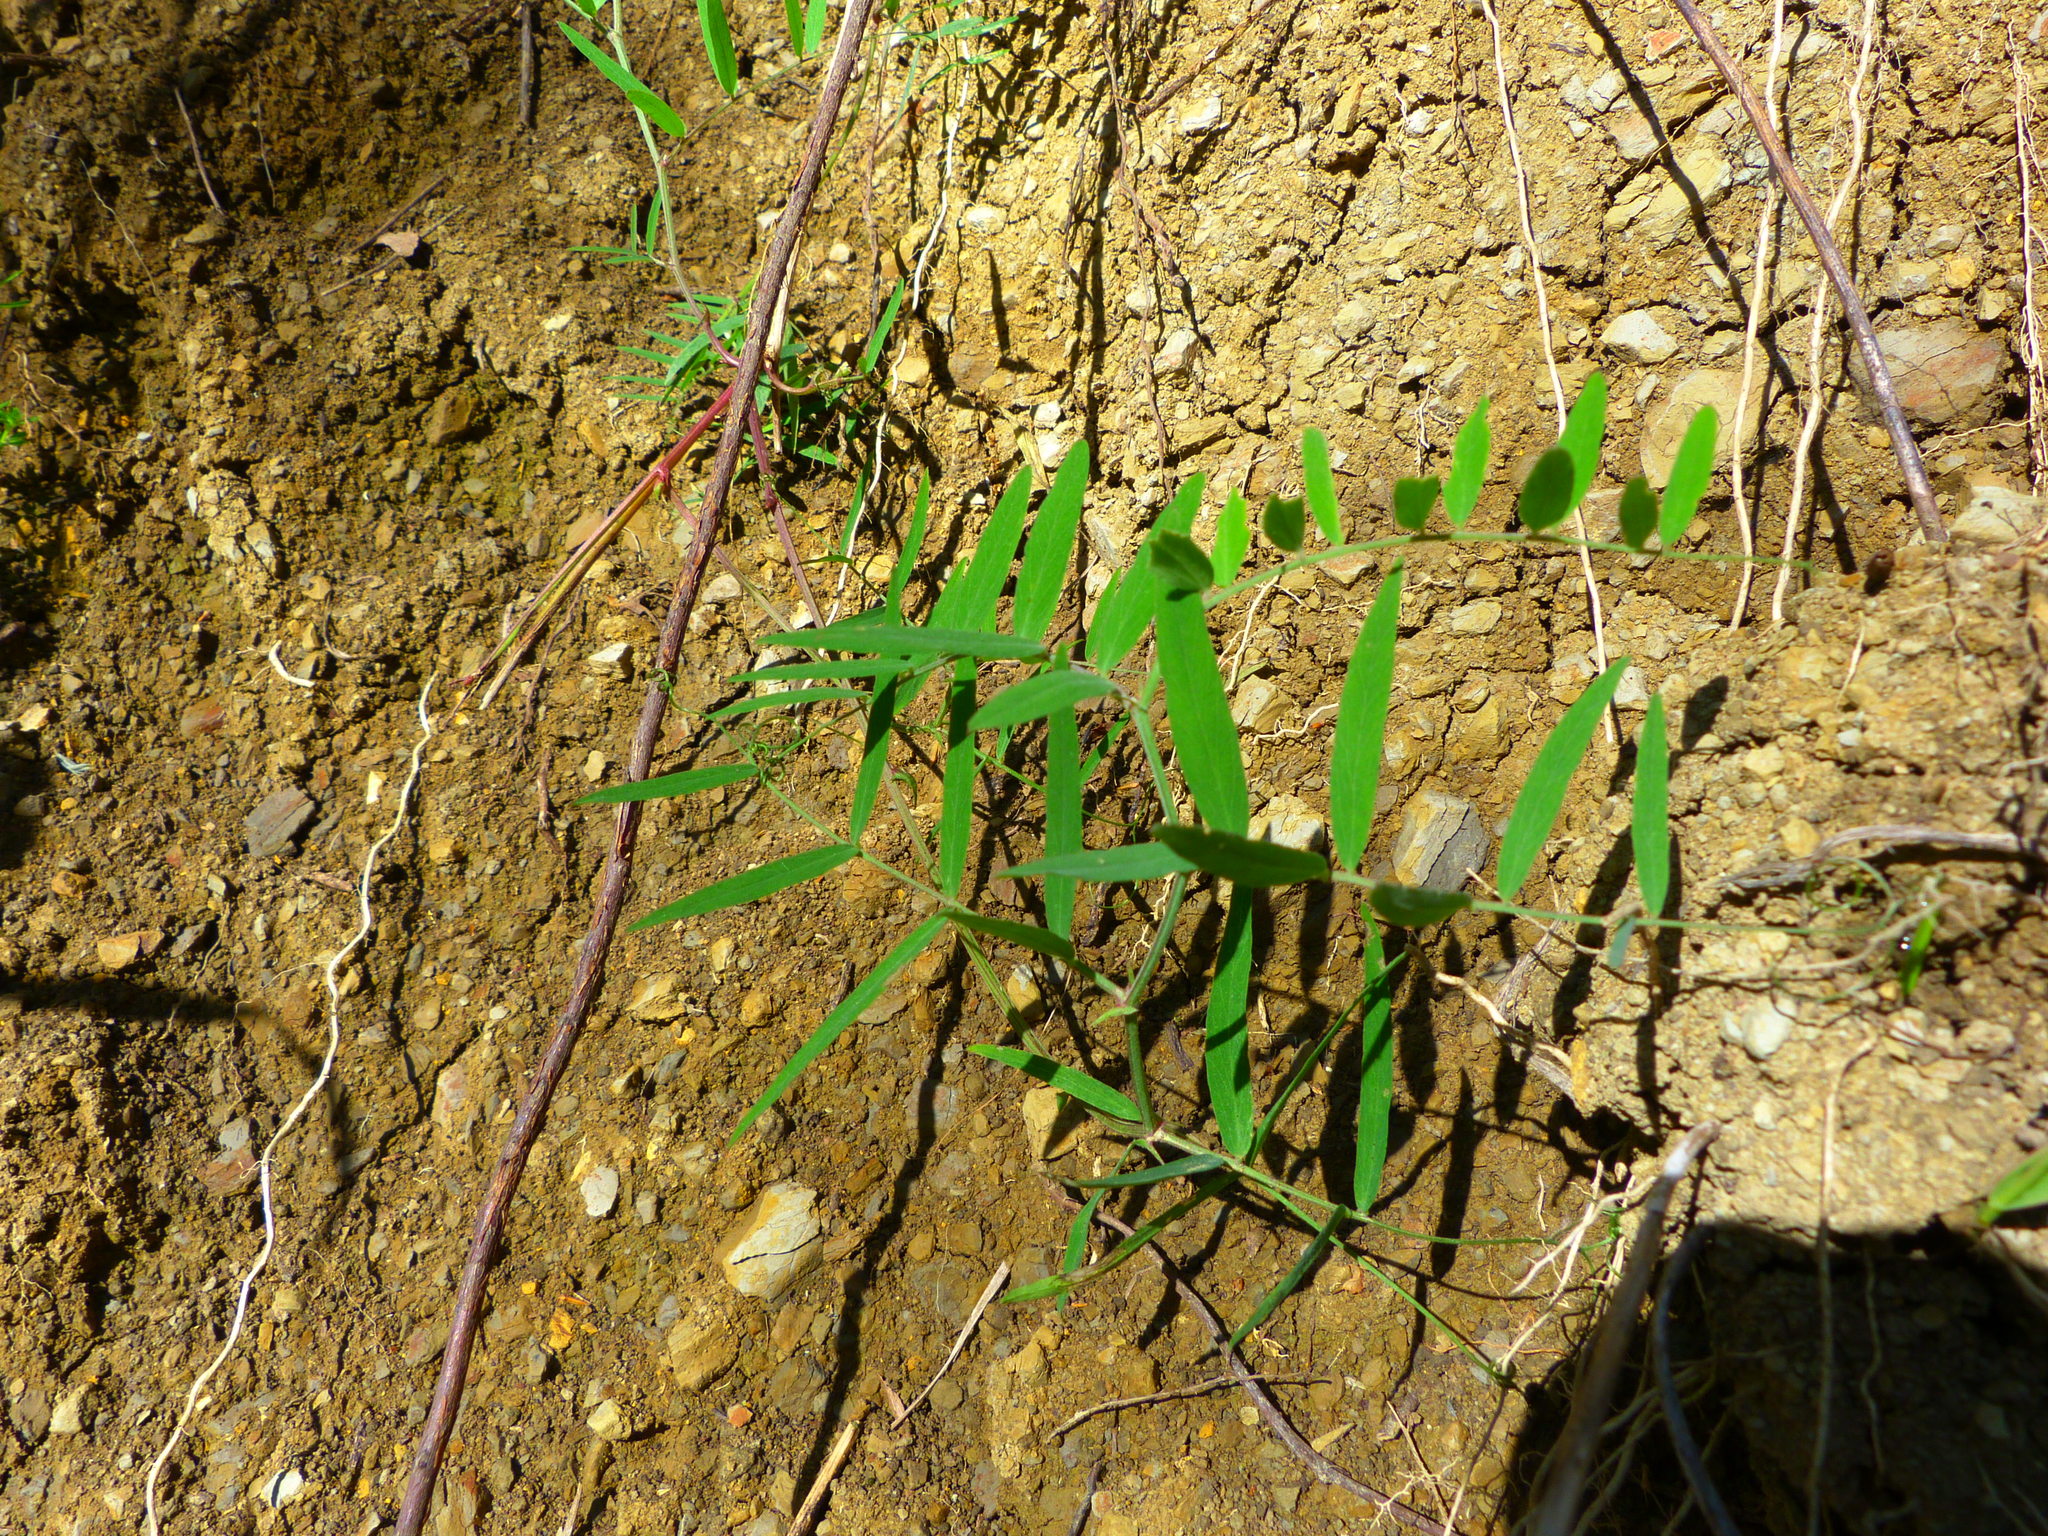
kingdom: Plantae
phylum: Tracheophyta
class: Magnoliopsida
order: Fabales
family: Fabaceae
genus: Lathyrus
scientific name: Lathyrus vestitus
